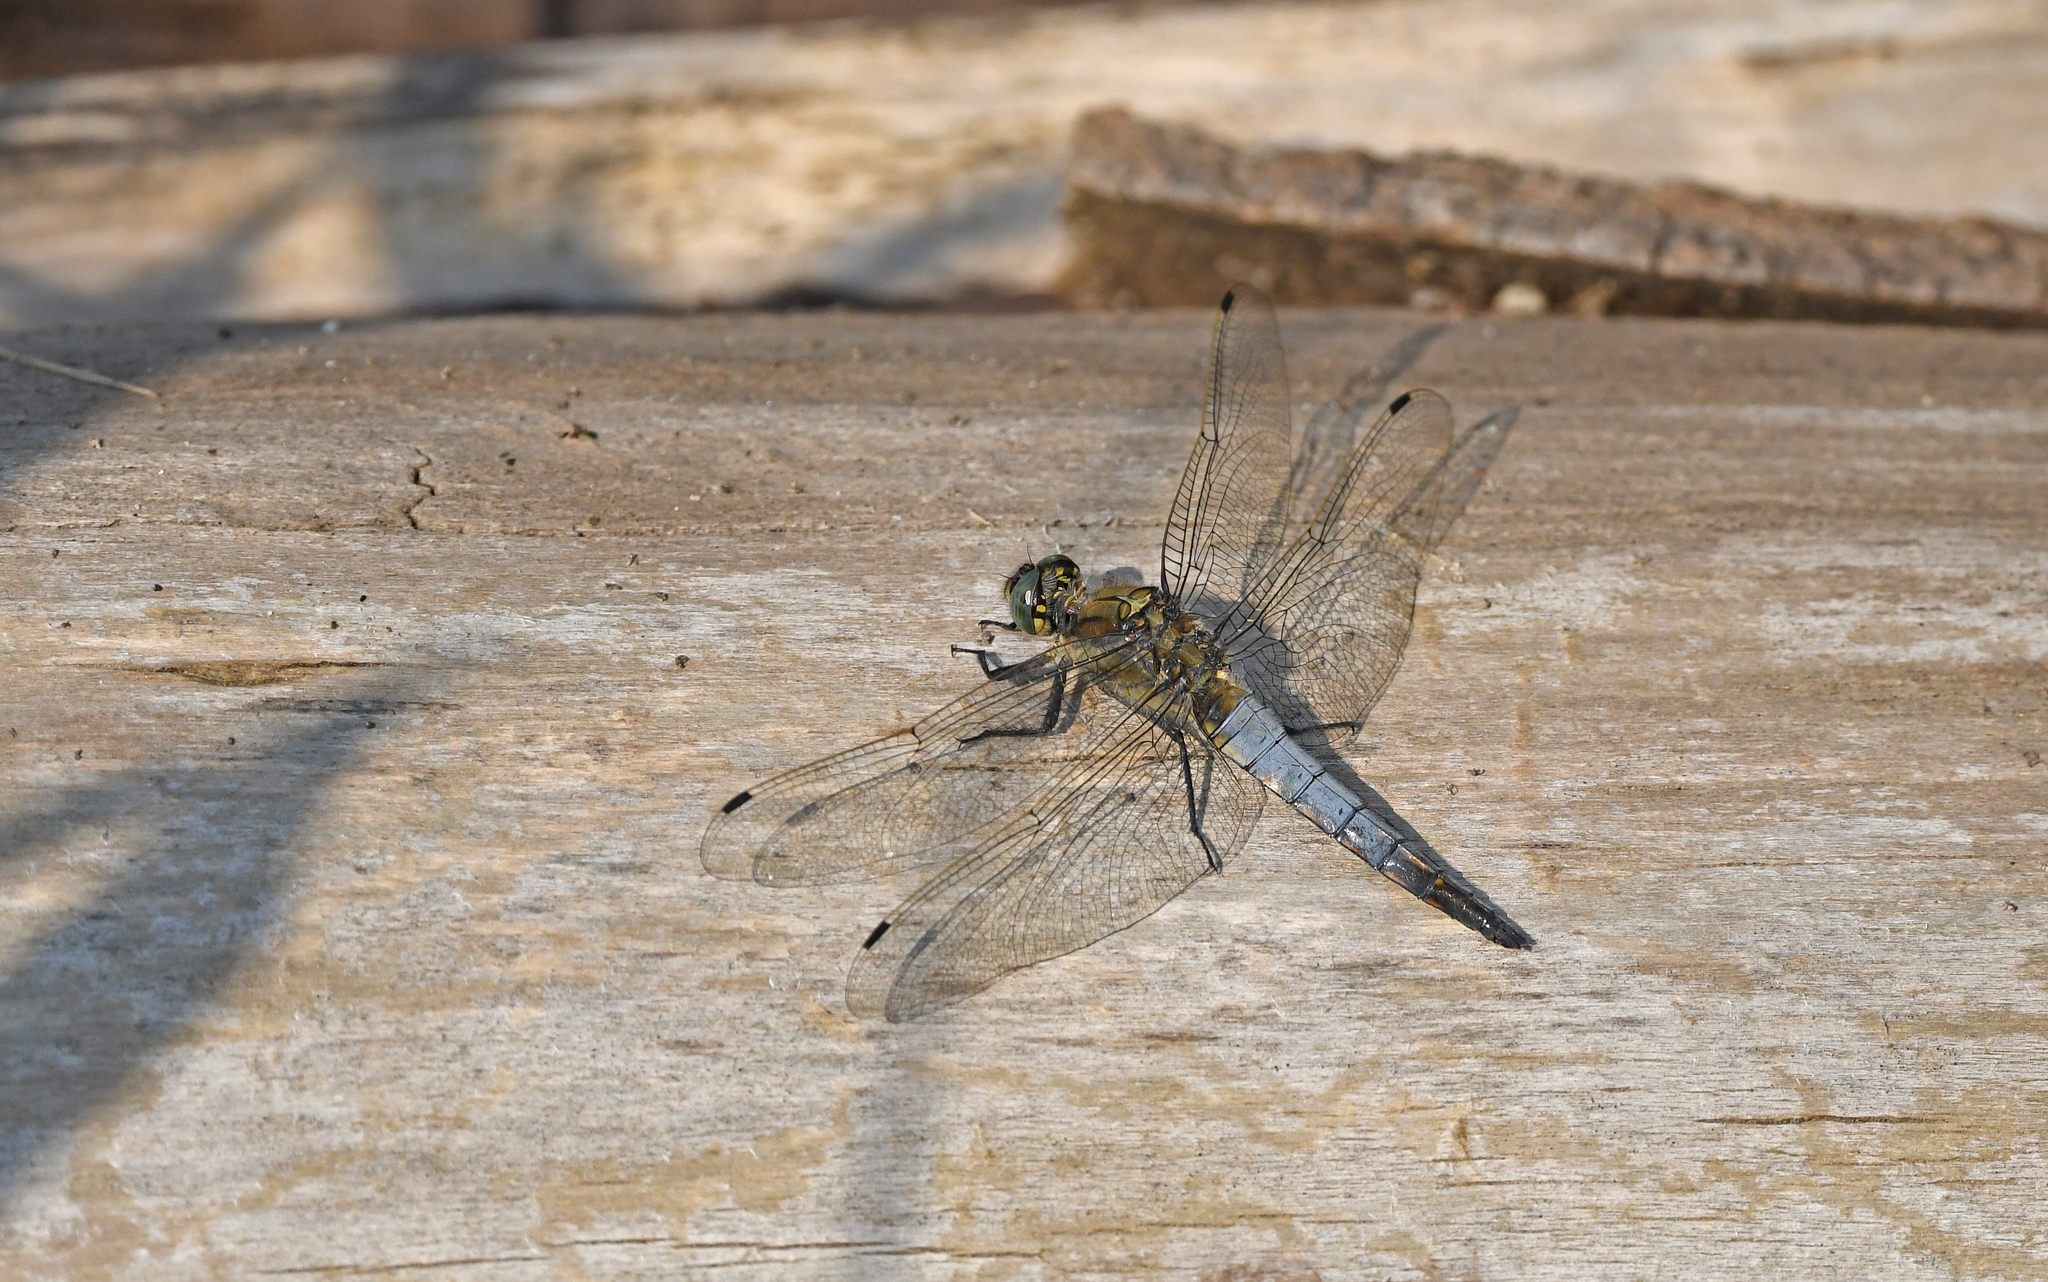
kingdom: Animalia
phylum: Arthropoda
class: Insecta
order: Odonata
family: Libellulidae
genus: Orthetrum
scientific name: Orthetrum cancellatum
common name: Black-tailed skimmer
